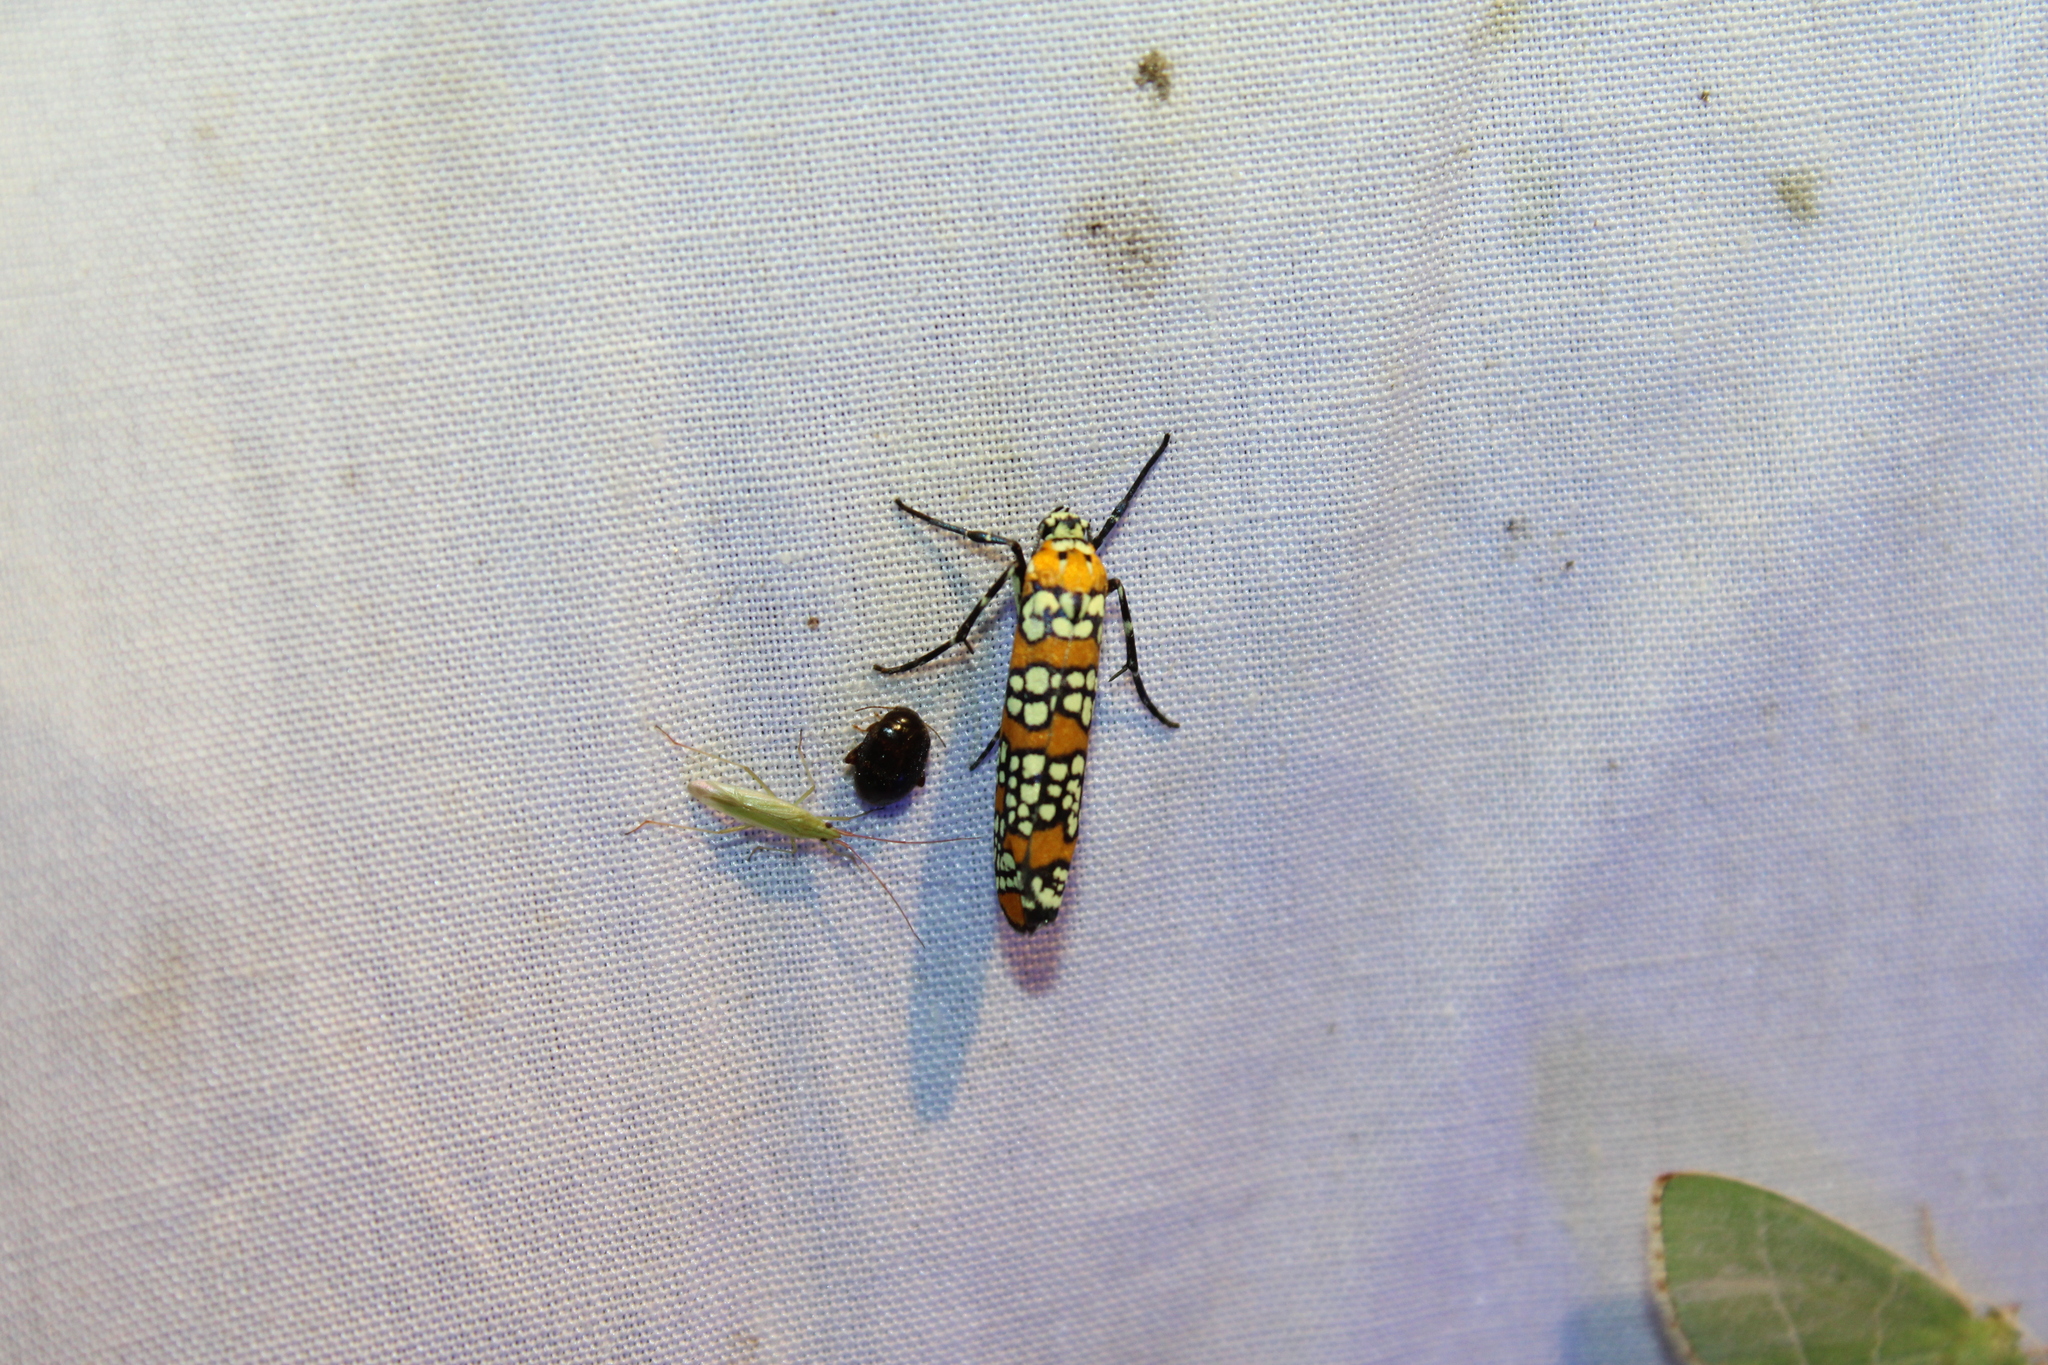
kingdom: Animalia
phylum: Arthropoda
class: Insecta
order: Lepidoptera
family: Attevidae
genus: Atteva
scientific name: Atteva punctella
